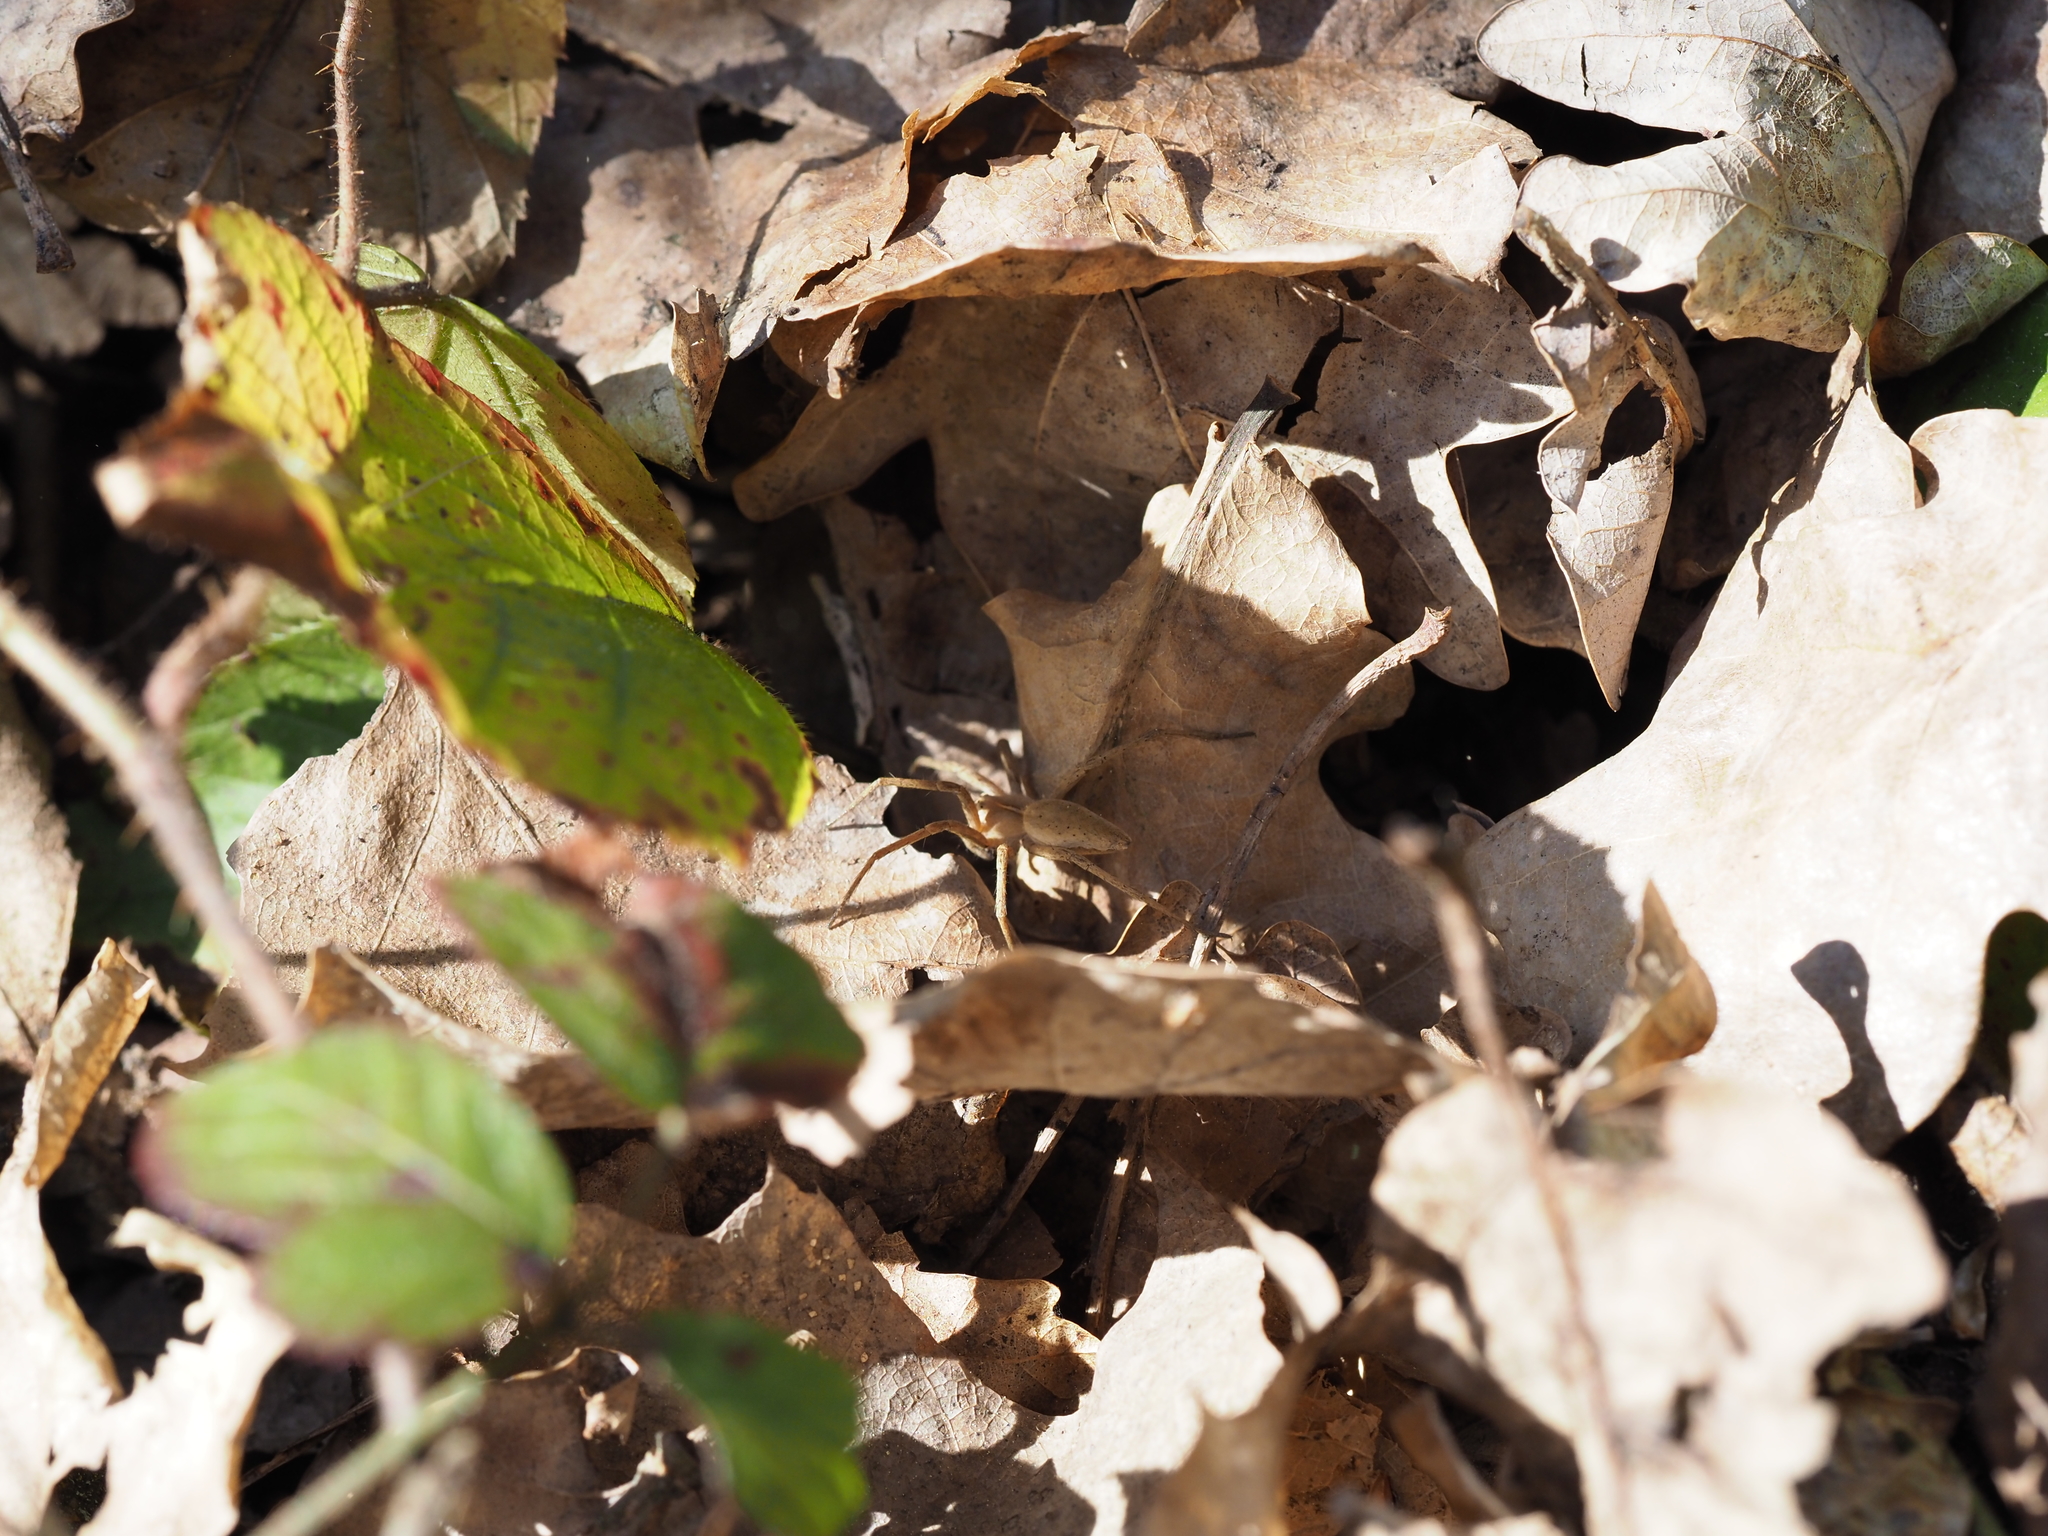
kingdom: Animalia
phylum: Arthropoda
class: Arachnida
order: Araneae
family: Pisauridae
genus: Pisaura
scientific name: Pisaura mirabilis
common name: Tent spider
